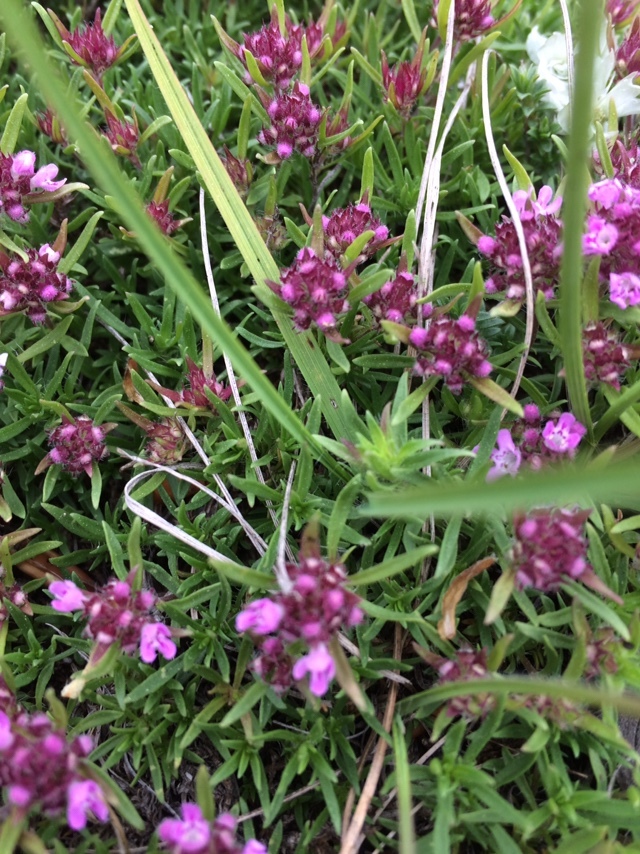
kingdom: Plantae
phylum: Tracheophyta
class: Magnoliopsida
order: Lamiales
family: Lamiaceae
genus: Thymus
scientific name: Thymus callieri
